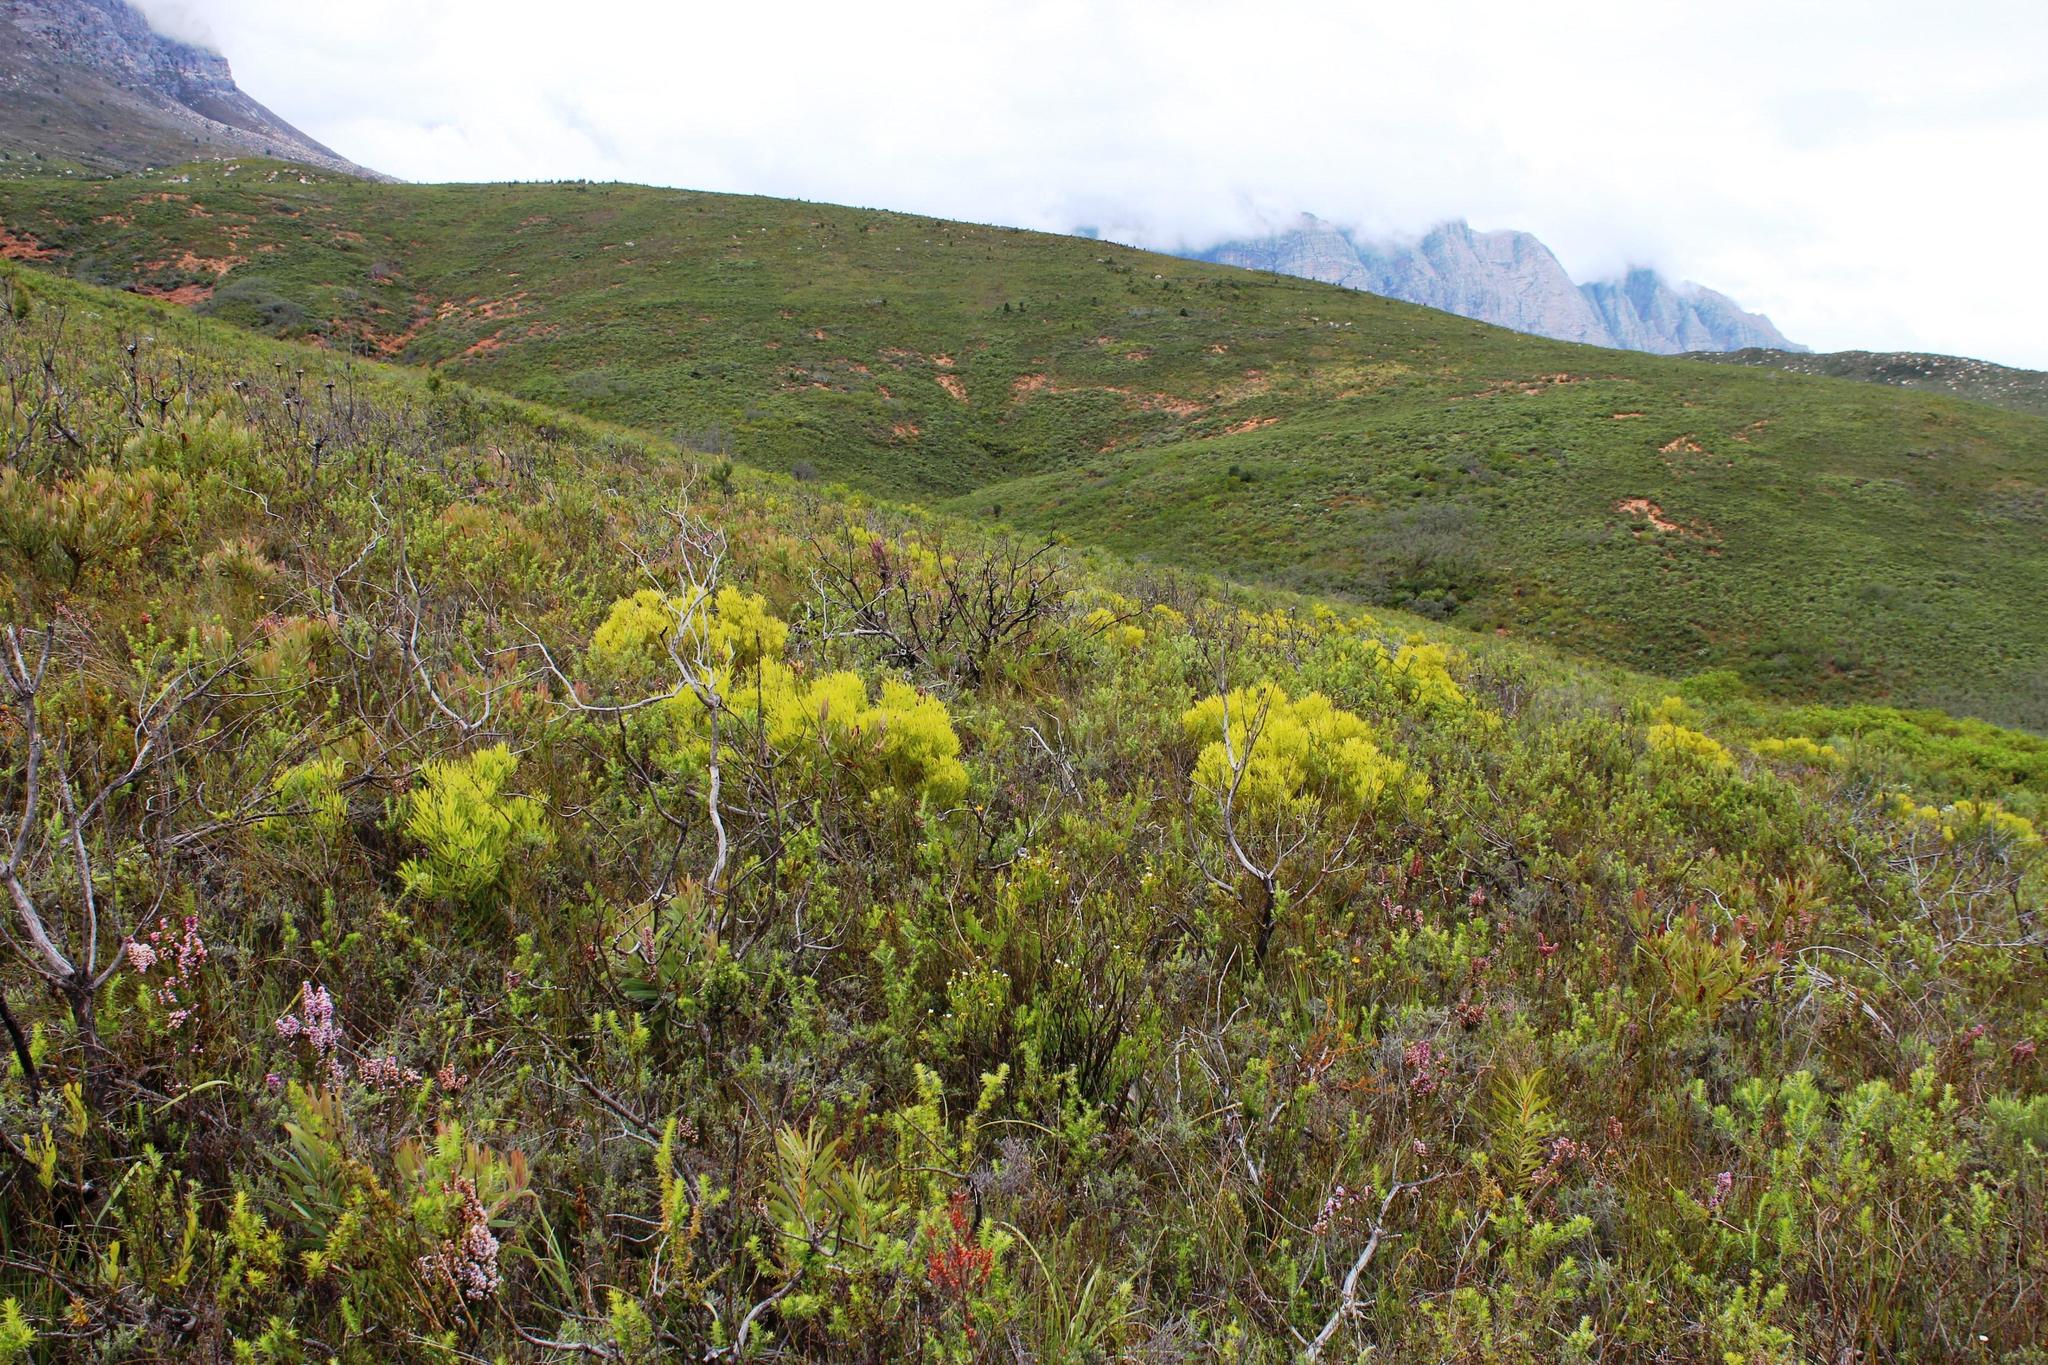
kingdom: Plantae
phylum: Tracheophyta
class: Magnoliopsida
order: Proteales
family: Proteaceae
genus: Leucadendron
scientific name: Leucadendron salignum
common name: Common sunshine conebush
